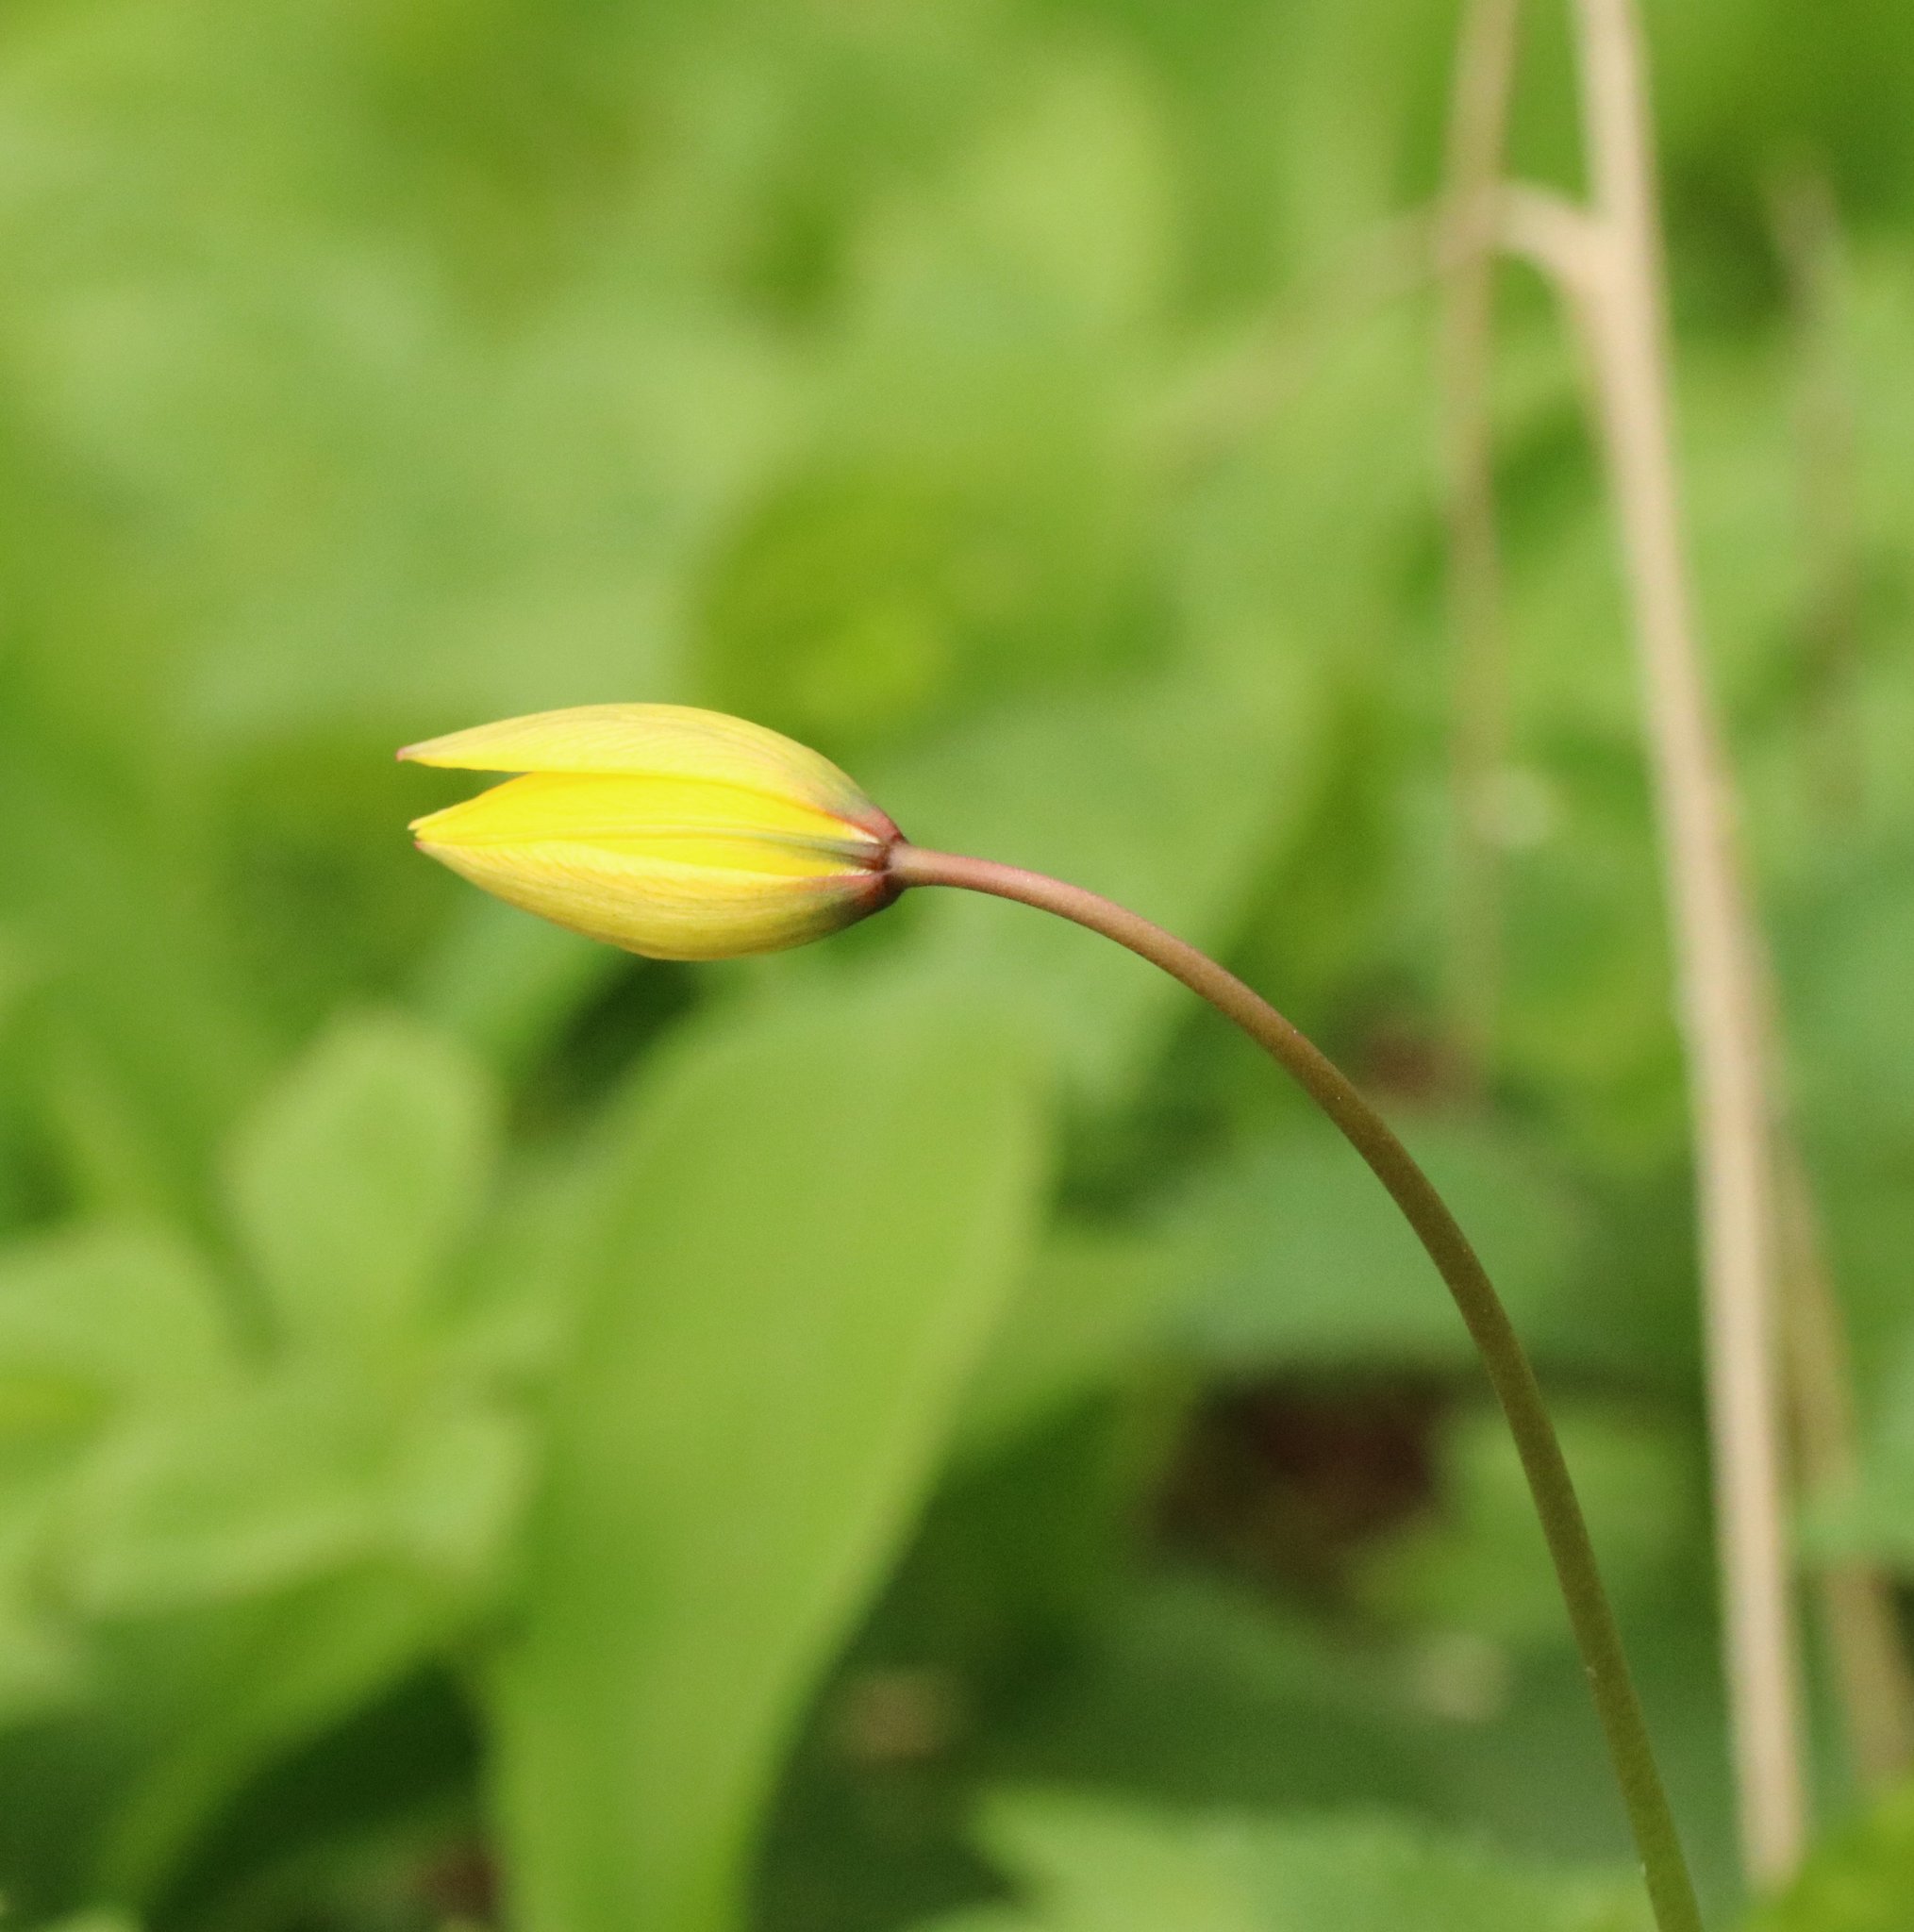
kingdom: Plantae
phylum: Tracheophyta
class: Liliopsida
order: Liliales
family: Liliaceae
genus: Tulipa
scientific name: Tulipa sylvestris
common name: Wild tulip
